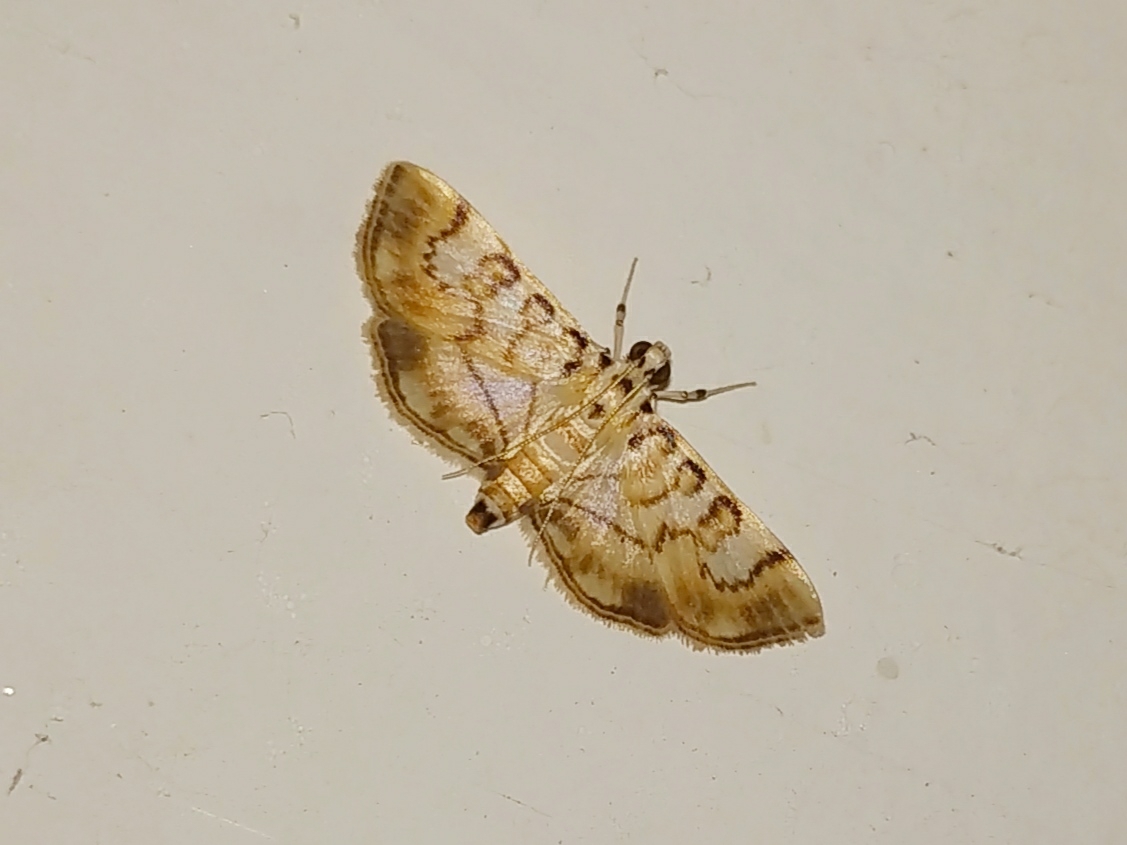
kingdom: Animalia
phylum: Arthropoda
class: Insecta
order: Lepidoptera
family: Crambidae
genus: Tabidia
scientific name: Tabidia aculealis
